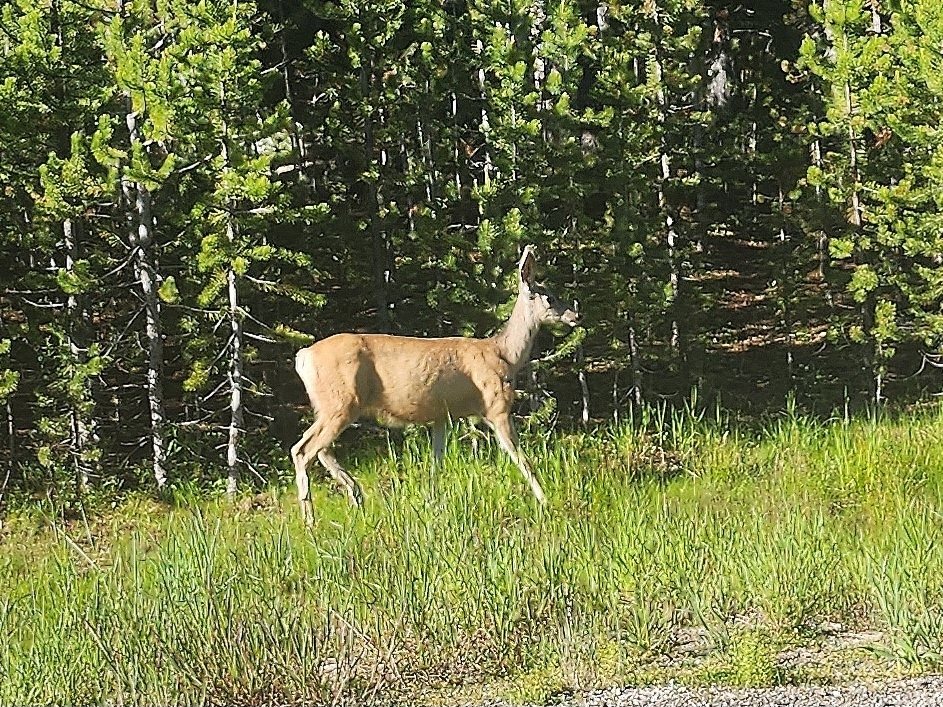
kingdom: Animalia
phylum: Chordata
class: Mammalia
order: Artiodactyla
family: Cervidae
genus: Odocoileus
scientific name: Odocoileus hemionus
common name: Mule deer
